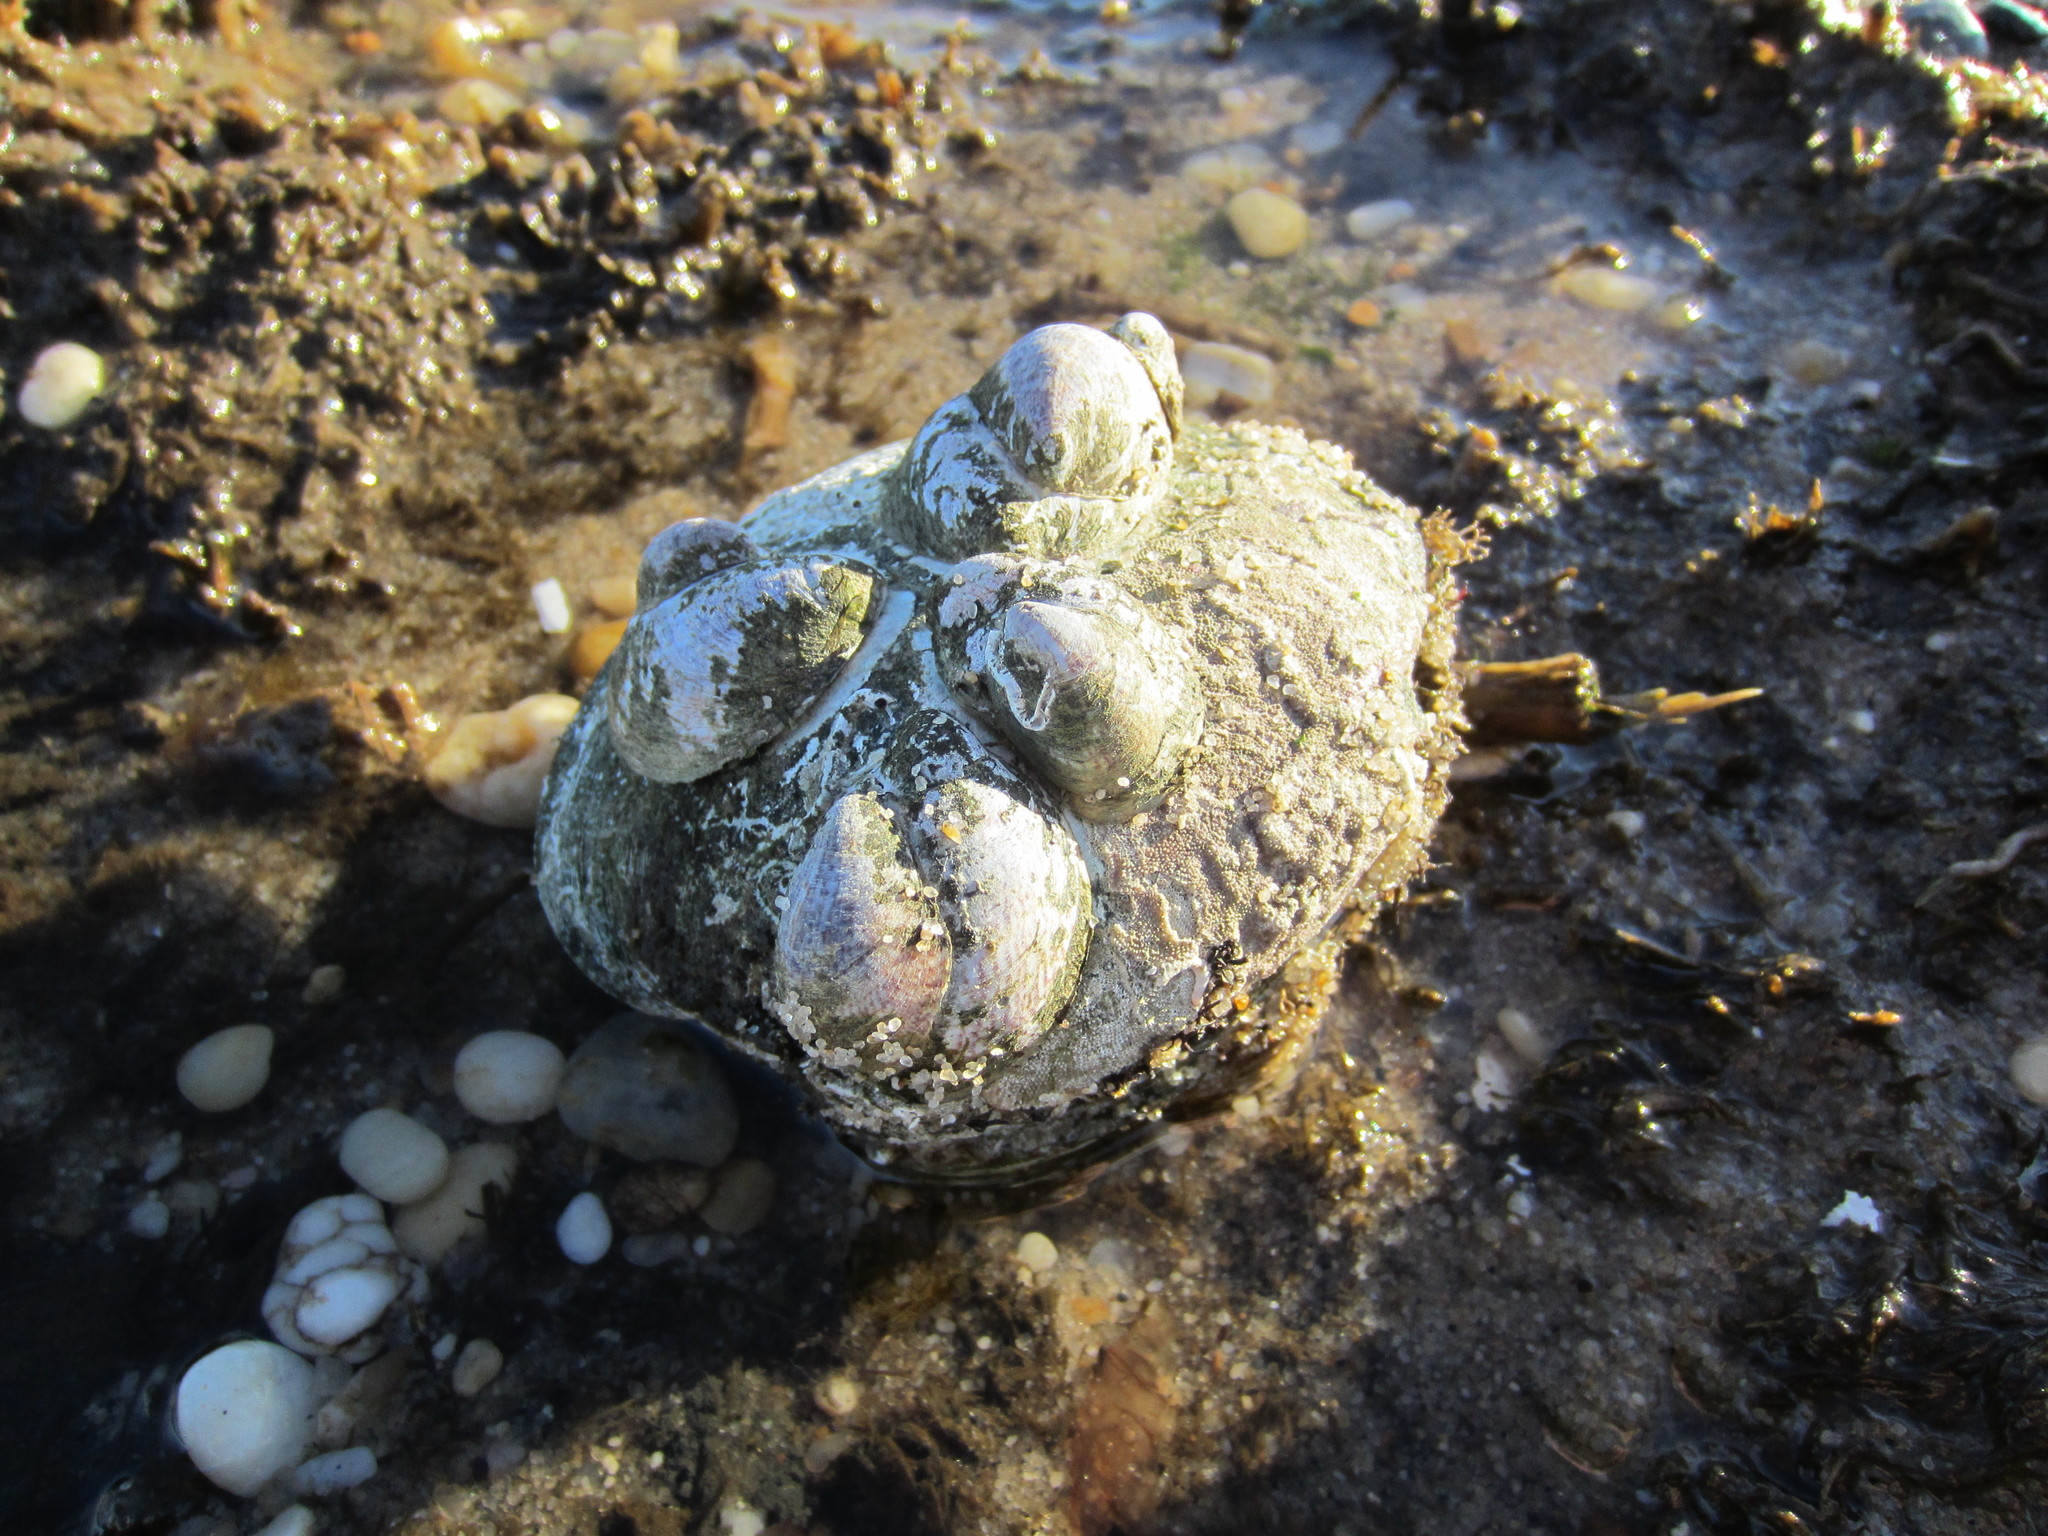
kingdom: Animalia
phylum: Mollusca
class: Gastropoda
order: Littorinimorpha
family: Calyptraeidae
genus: Crepidula
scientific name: Crepidula fornicata
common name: Slipper limpet
